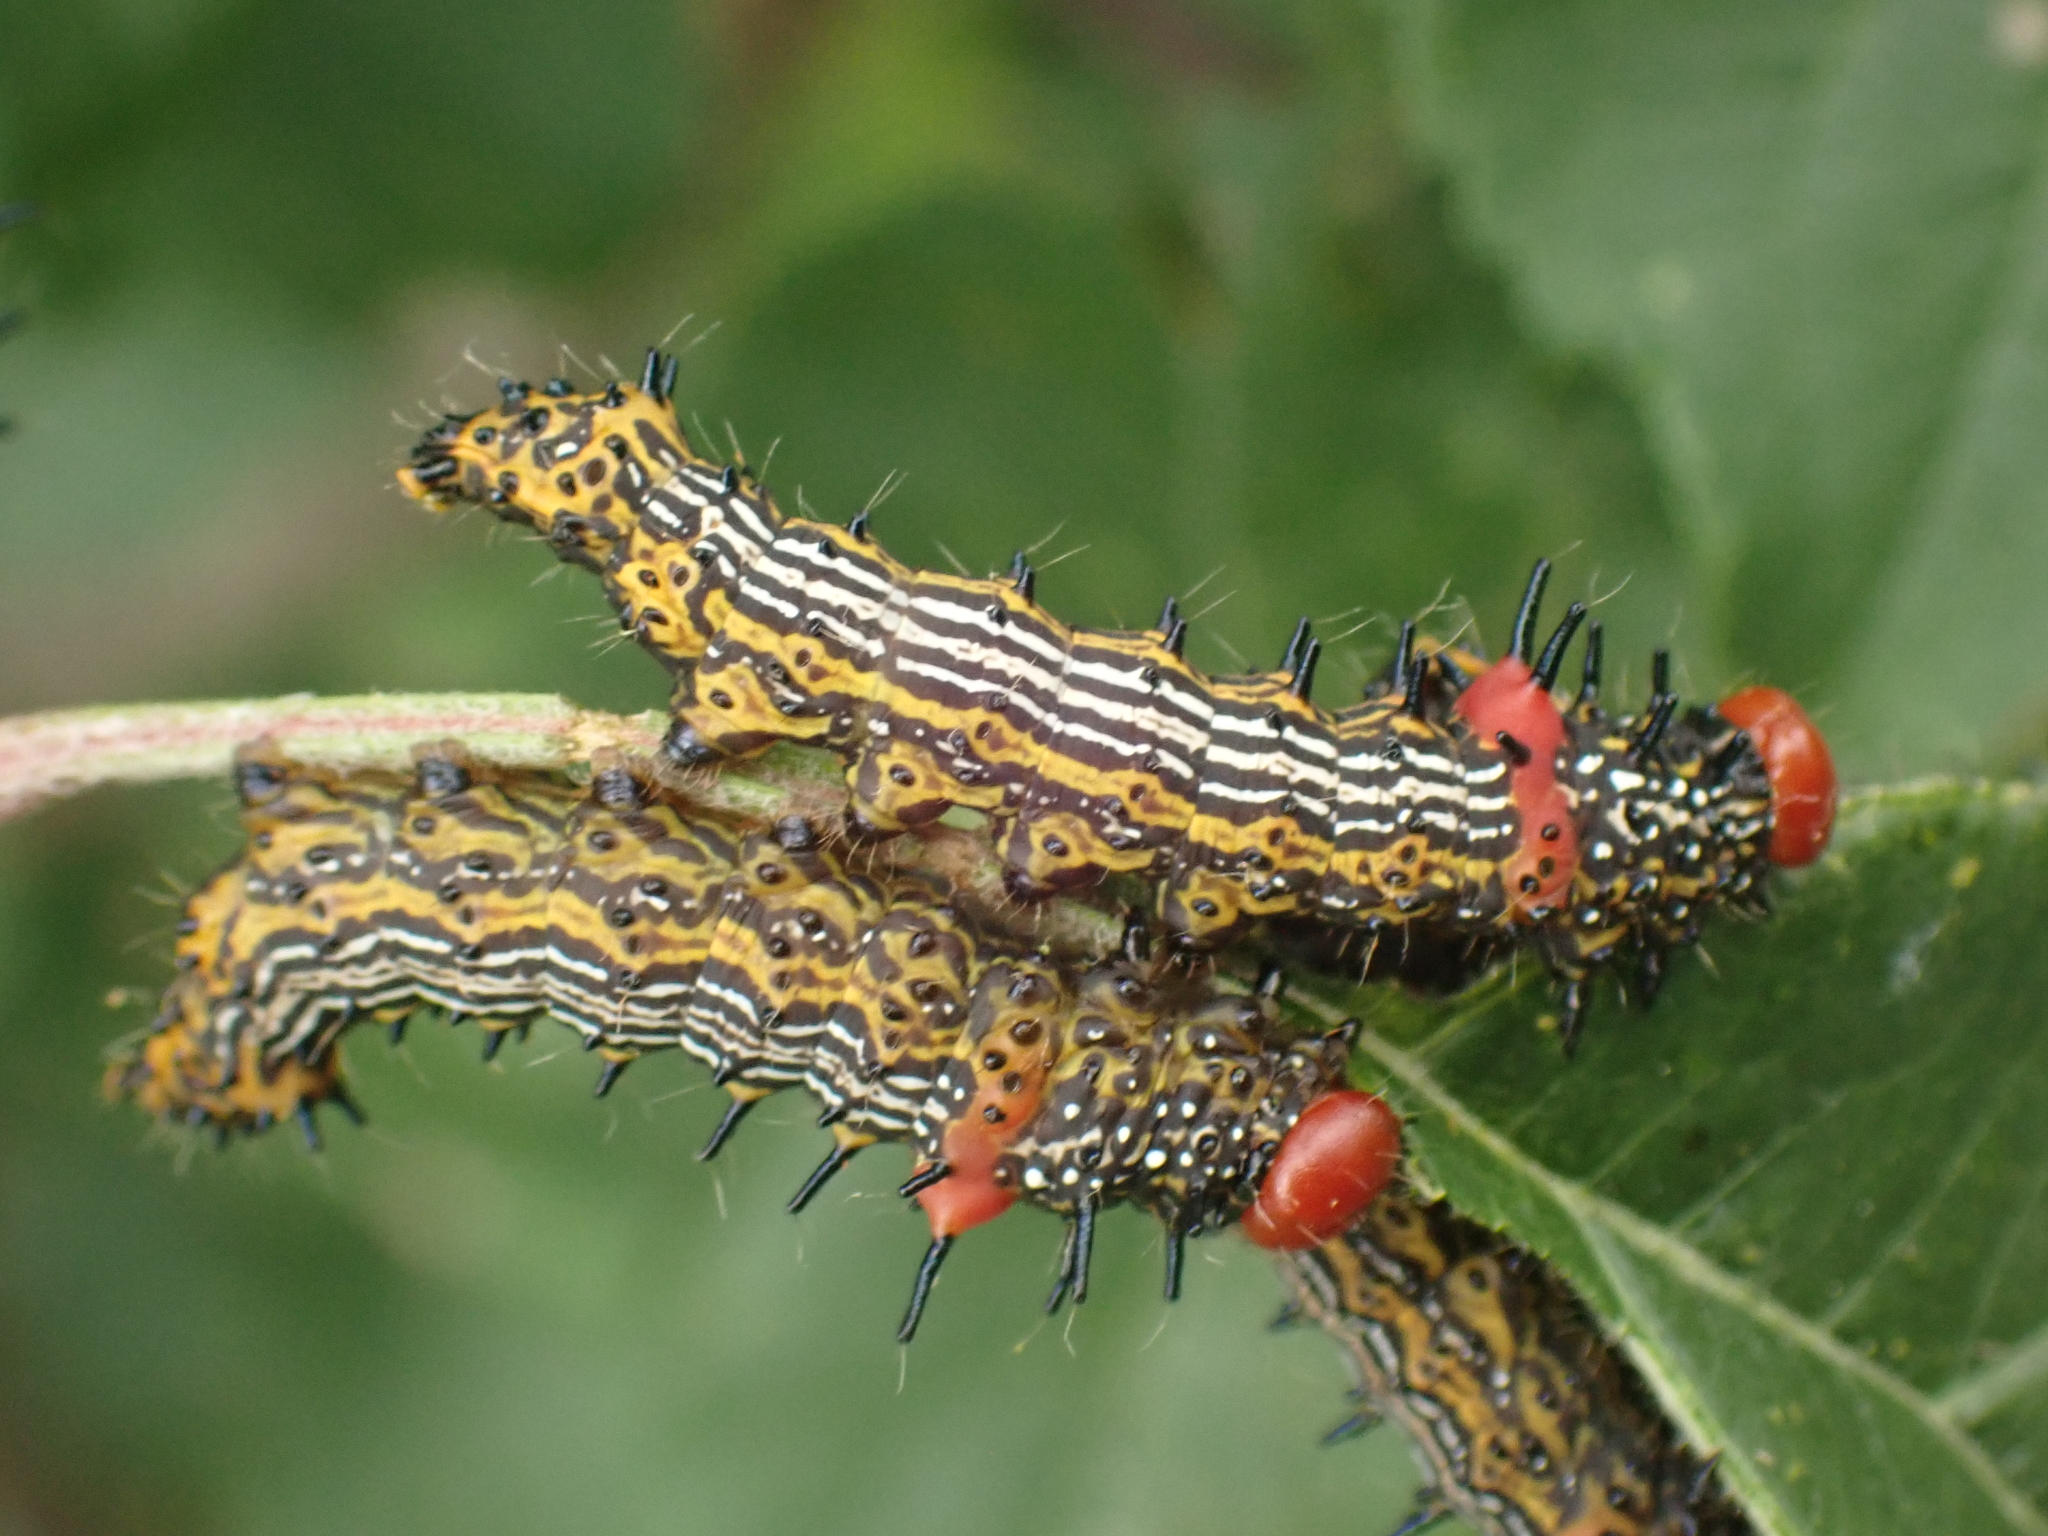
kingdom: Animalia
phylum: Arthropoda
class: Insecta
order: Lepidoptera
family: Notodontidae
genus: Schizura
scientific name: Schizura
